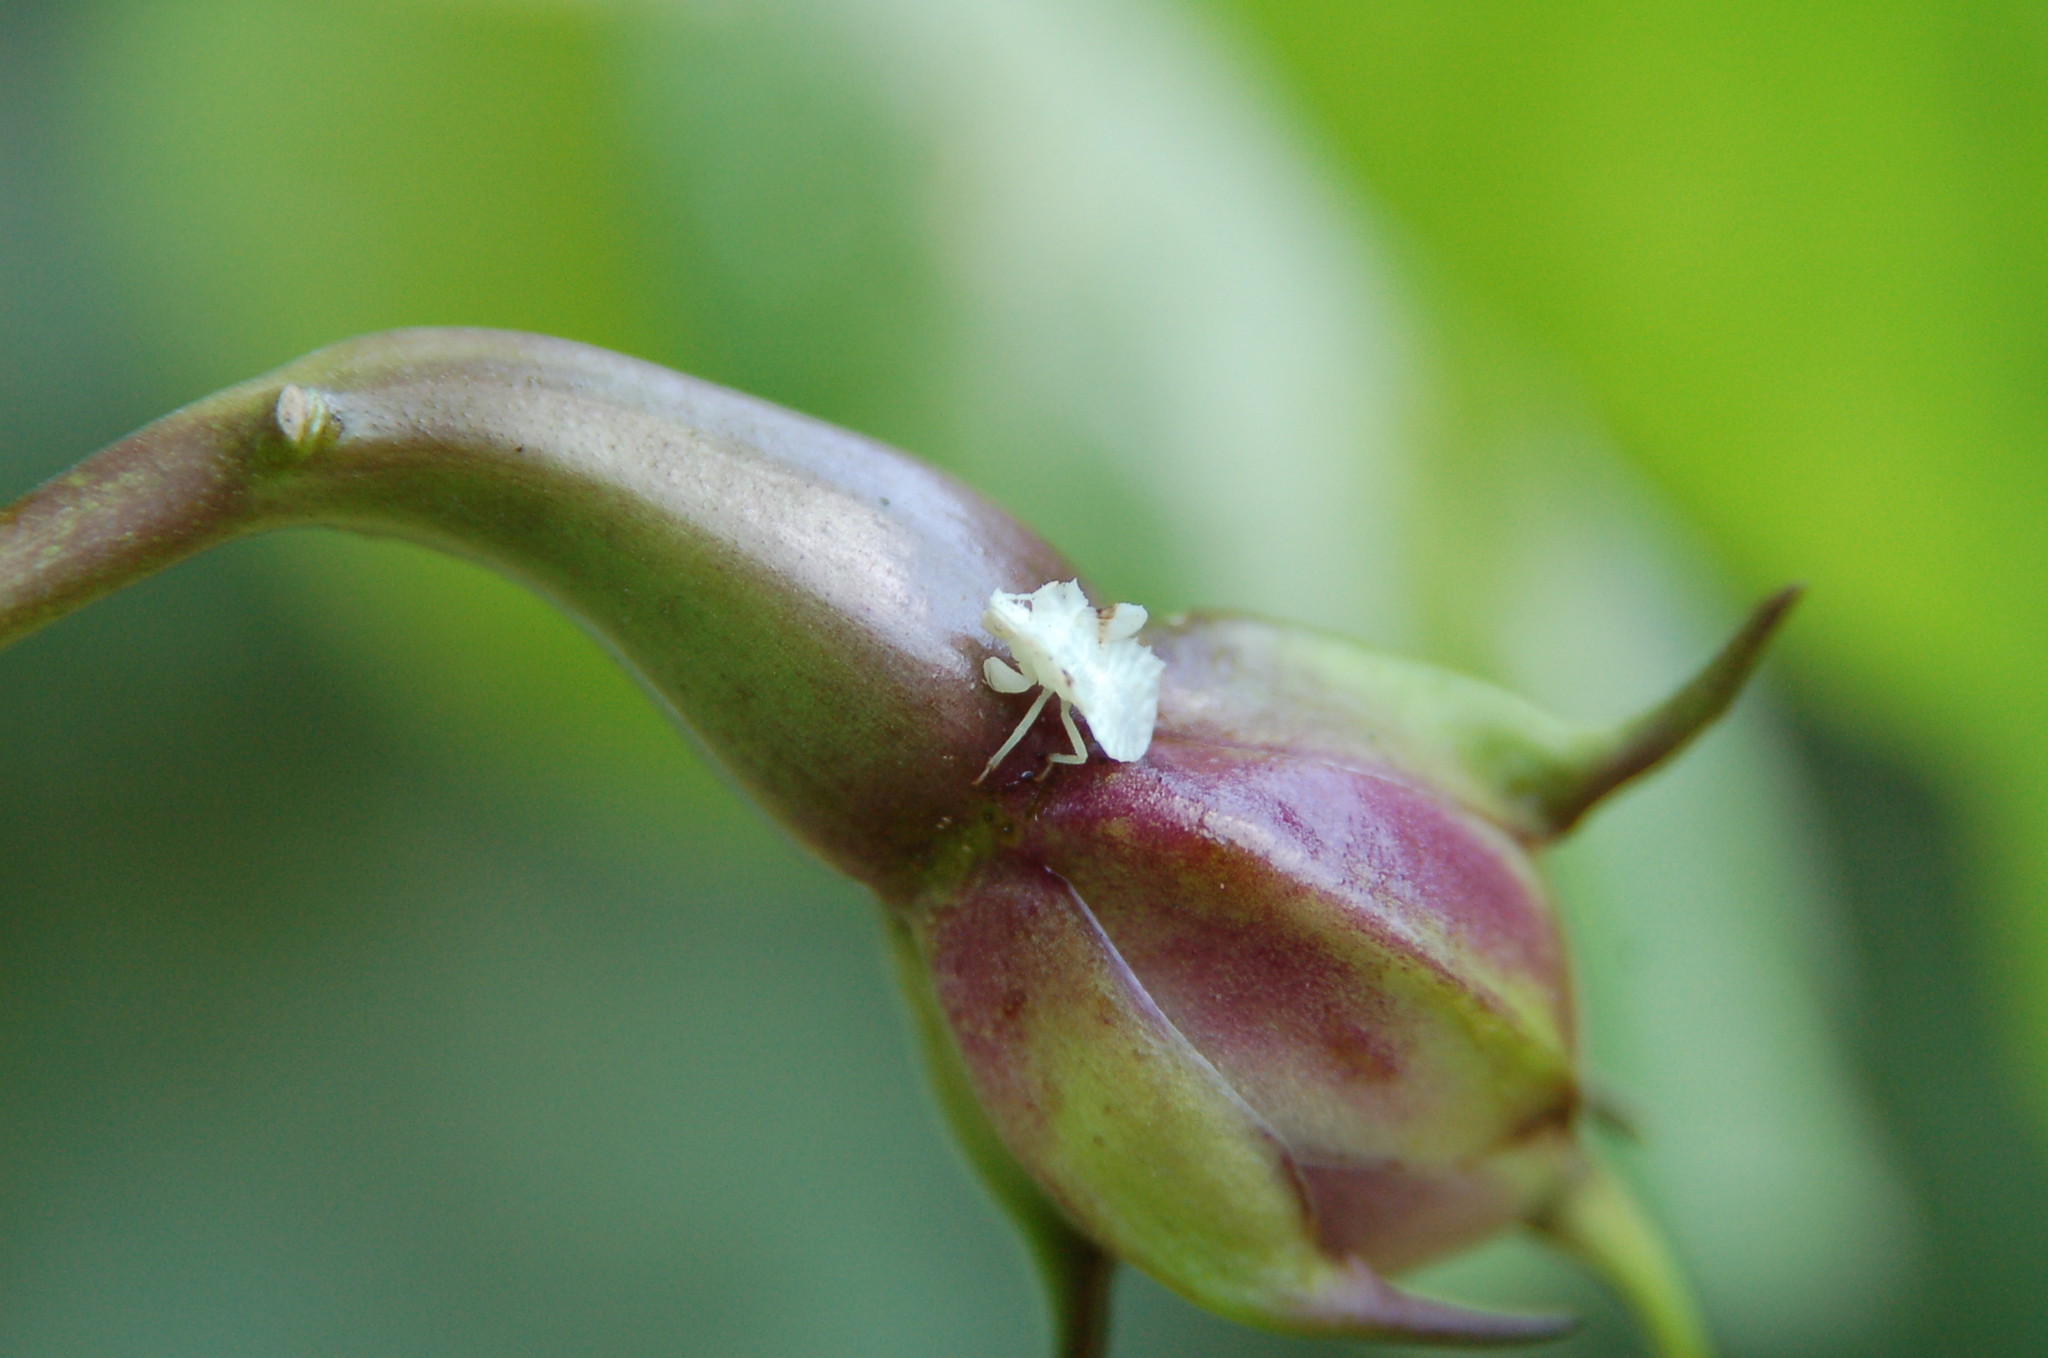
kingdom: Animalia
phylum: Arthropoda
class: Insecta
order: Hemiptera
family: Reduviidae
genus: Phymata
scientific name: Phymata fasciata
